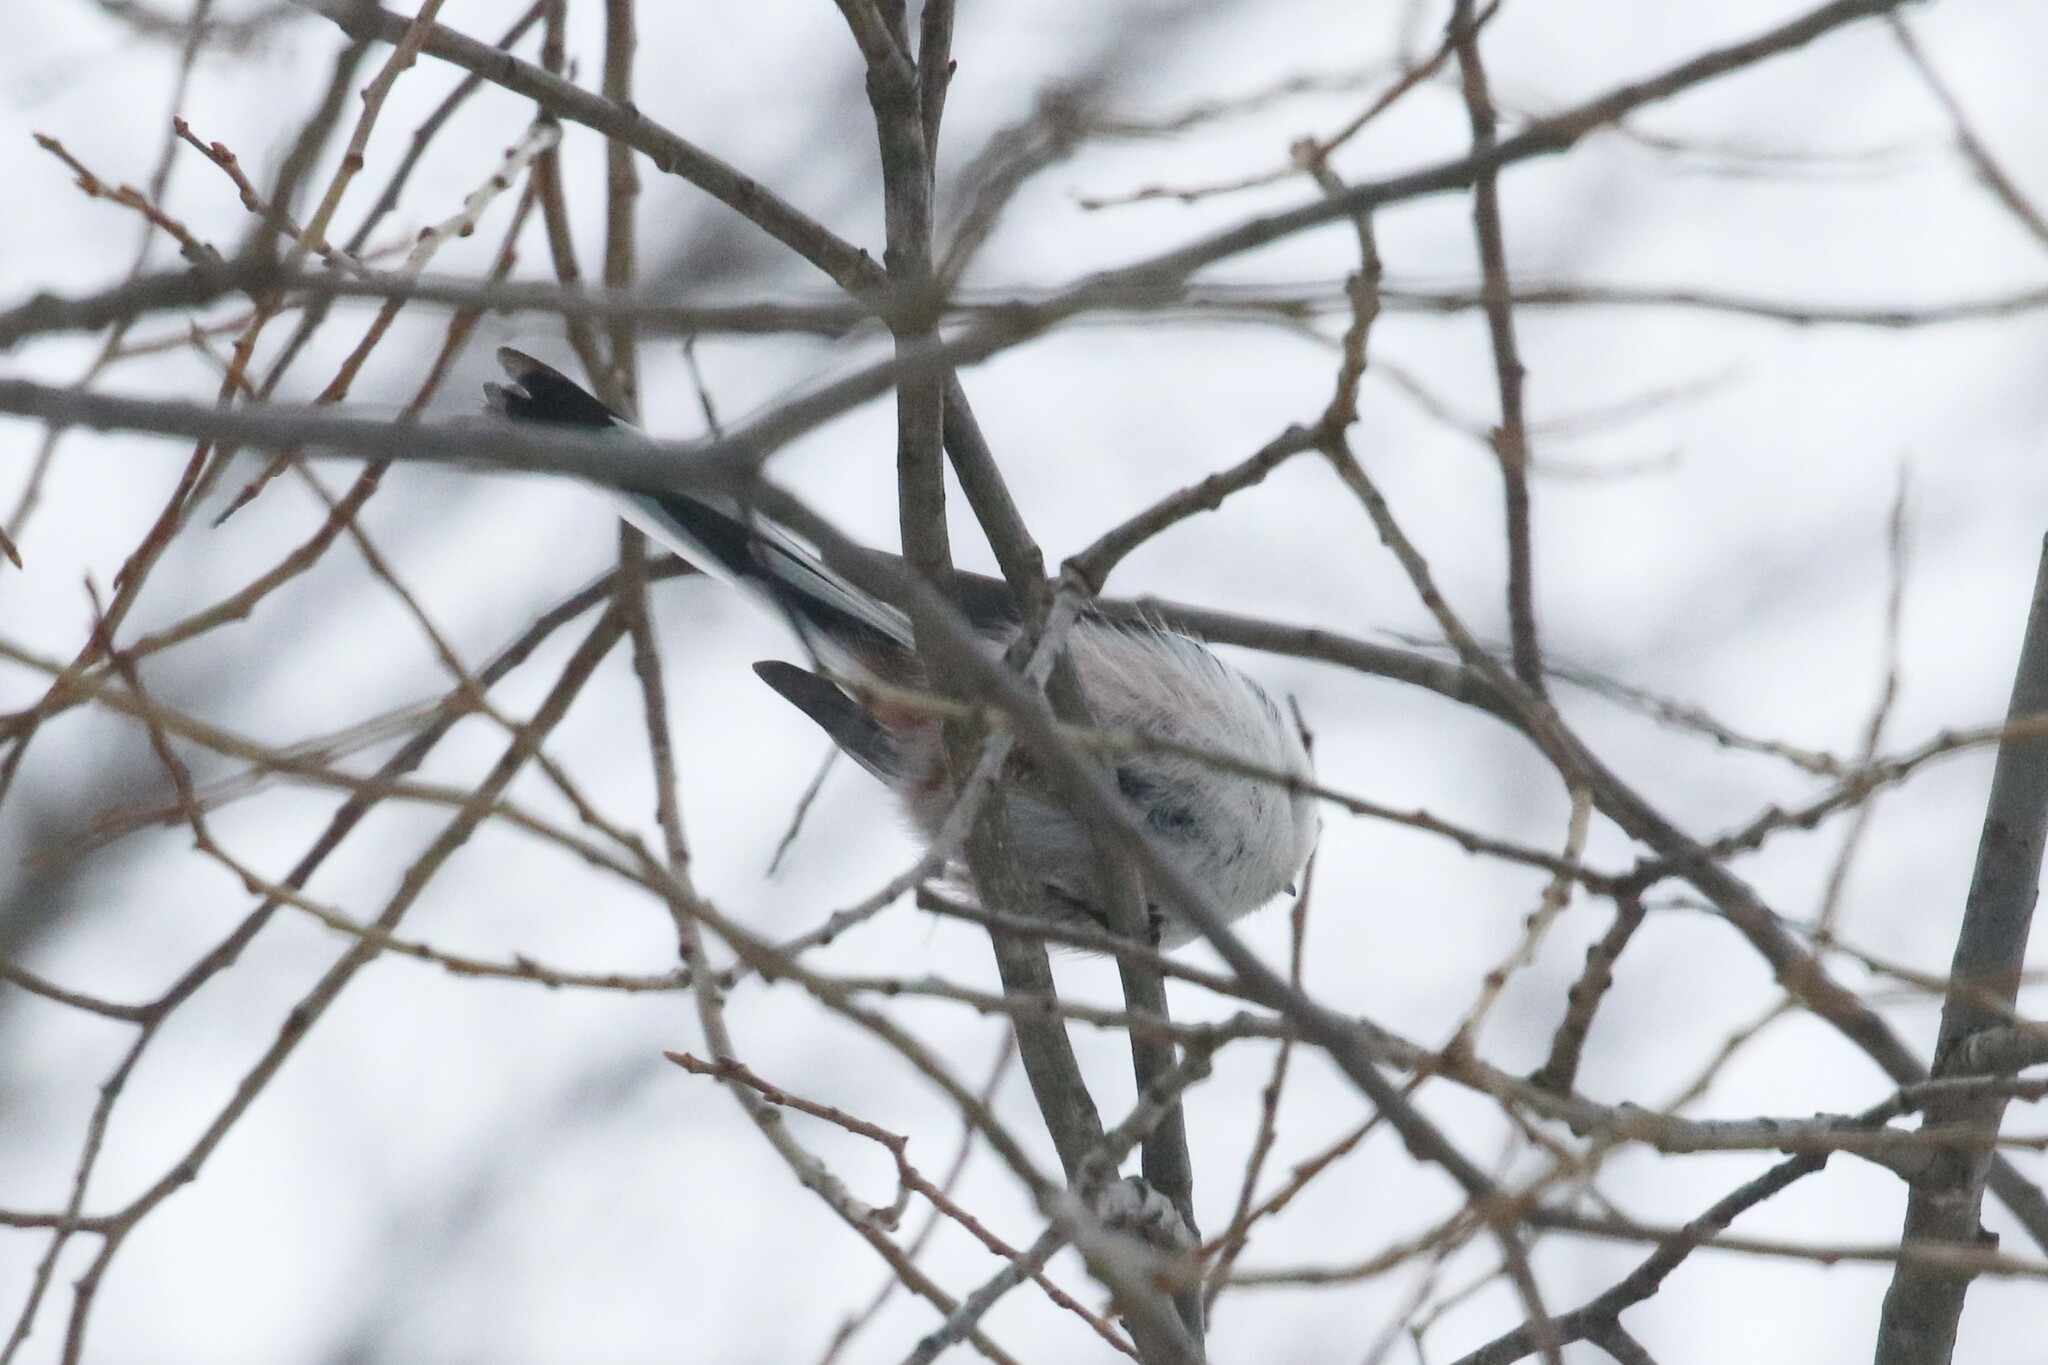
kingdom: Animalia
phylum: Chordata
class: Aves
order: Passeriformes
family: Aegithalidae
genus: Aegithalos
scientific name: Aegithalos caudatus
